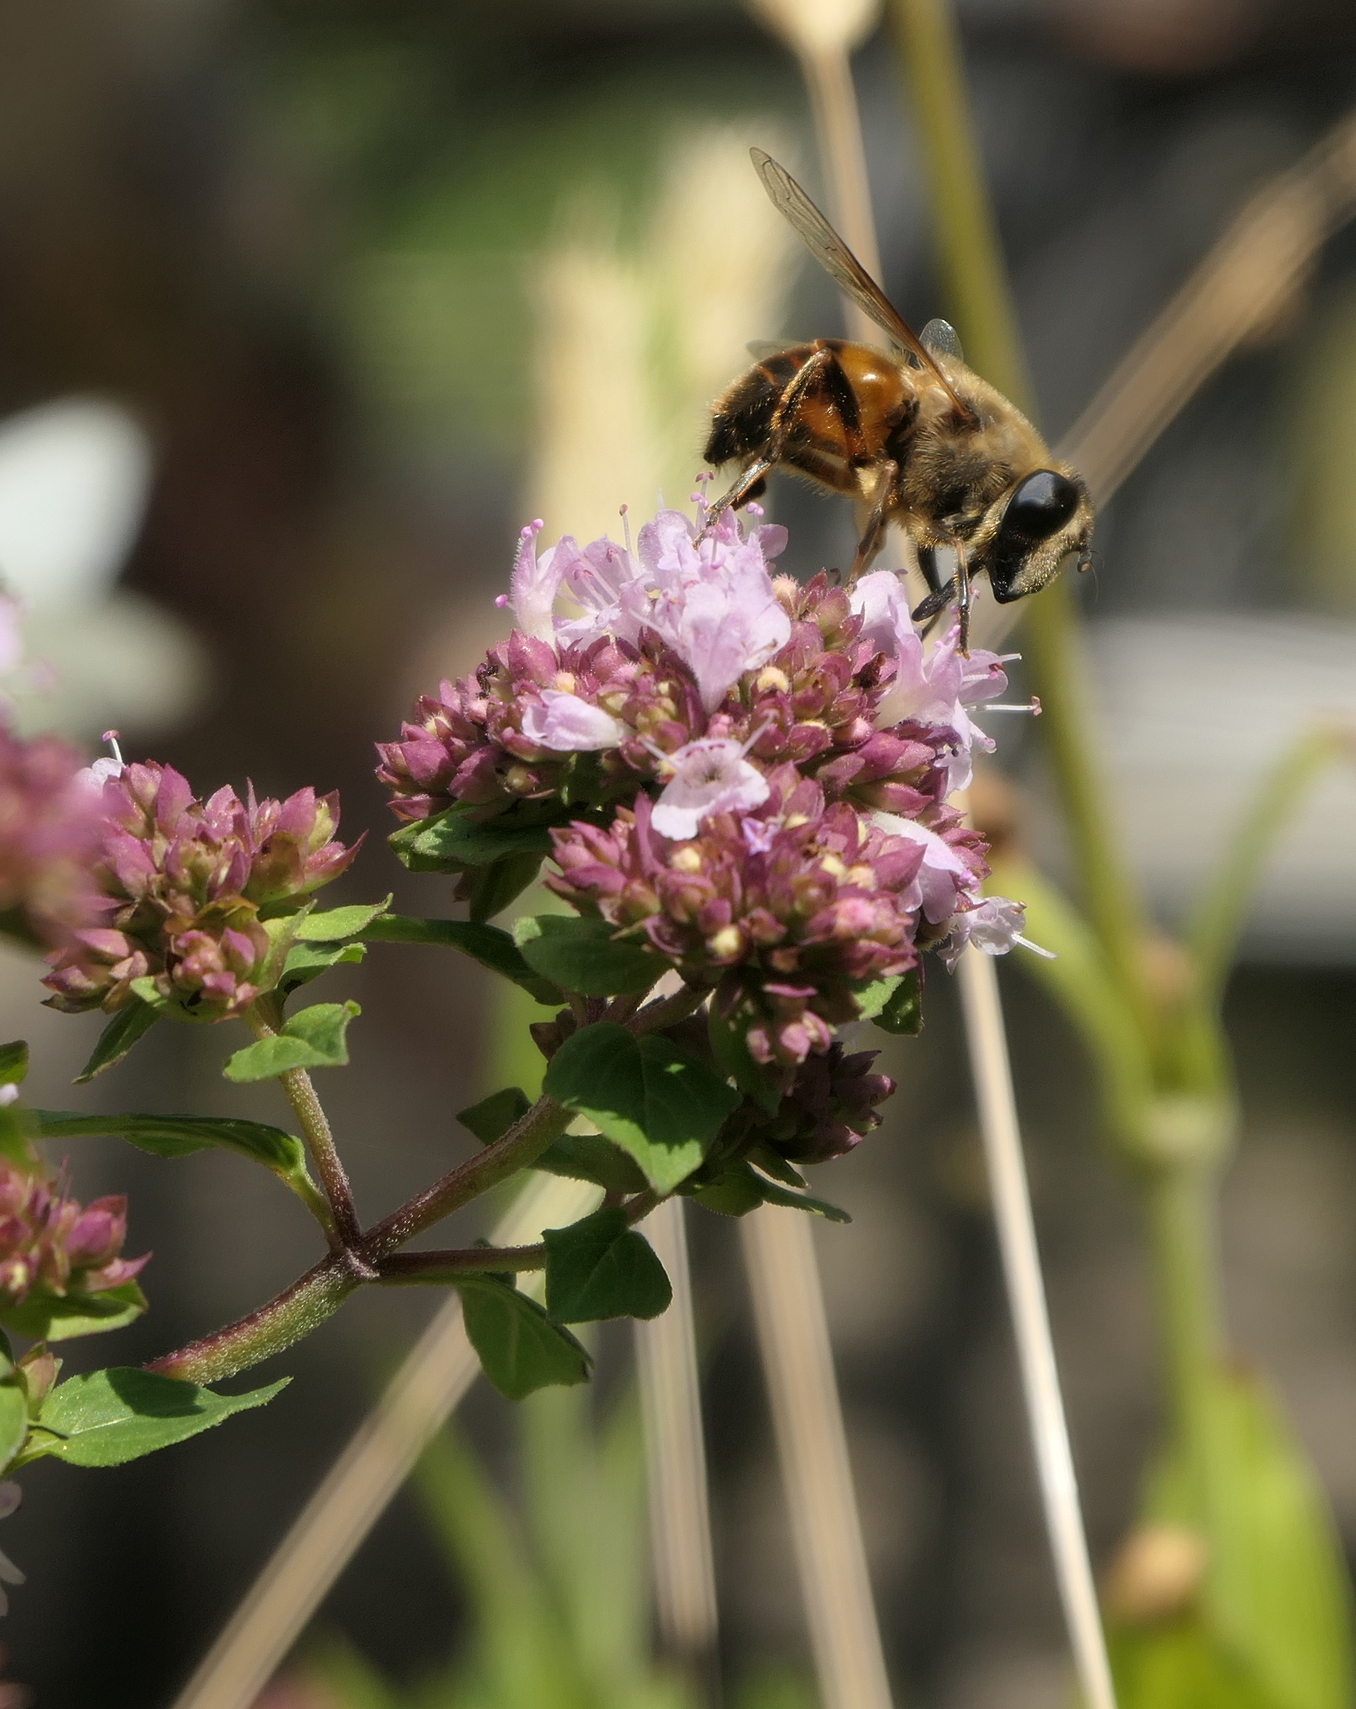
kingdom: Animalia
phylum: Arthropoda
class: Insecta
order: Diptera
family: Syrphidae
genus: Eristalis
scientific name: Eristalis tenax
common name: Drone fly
